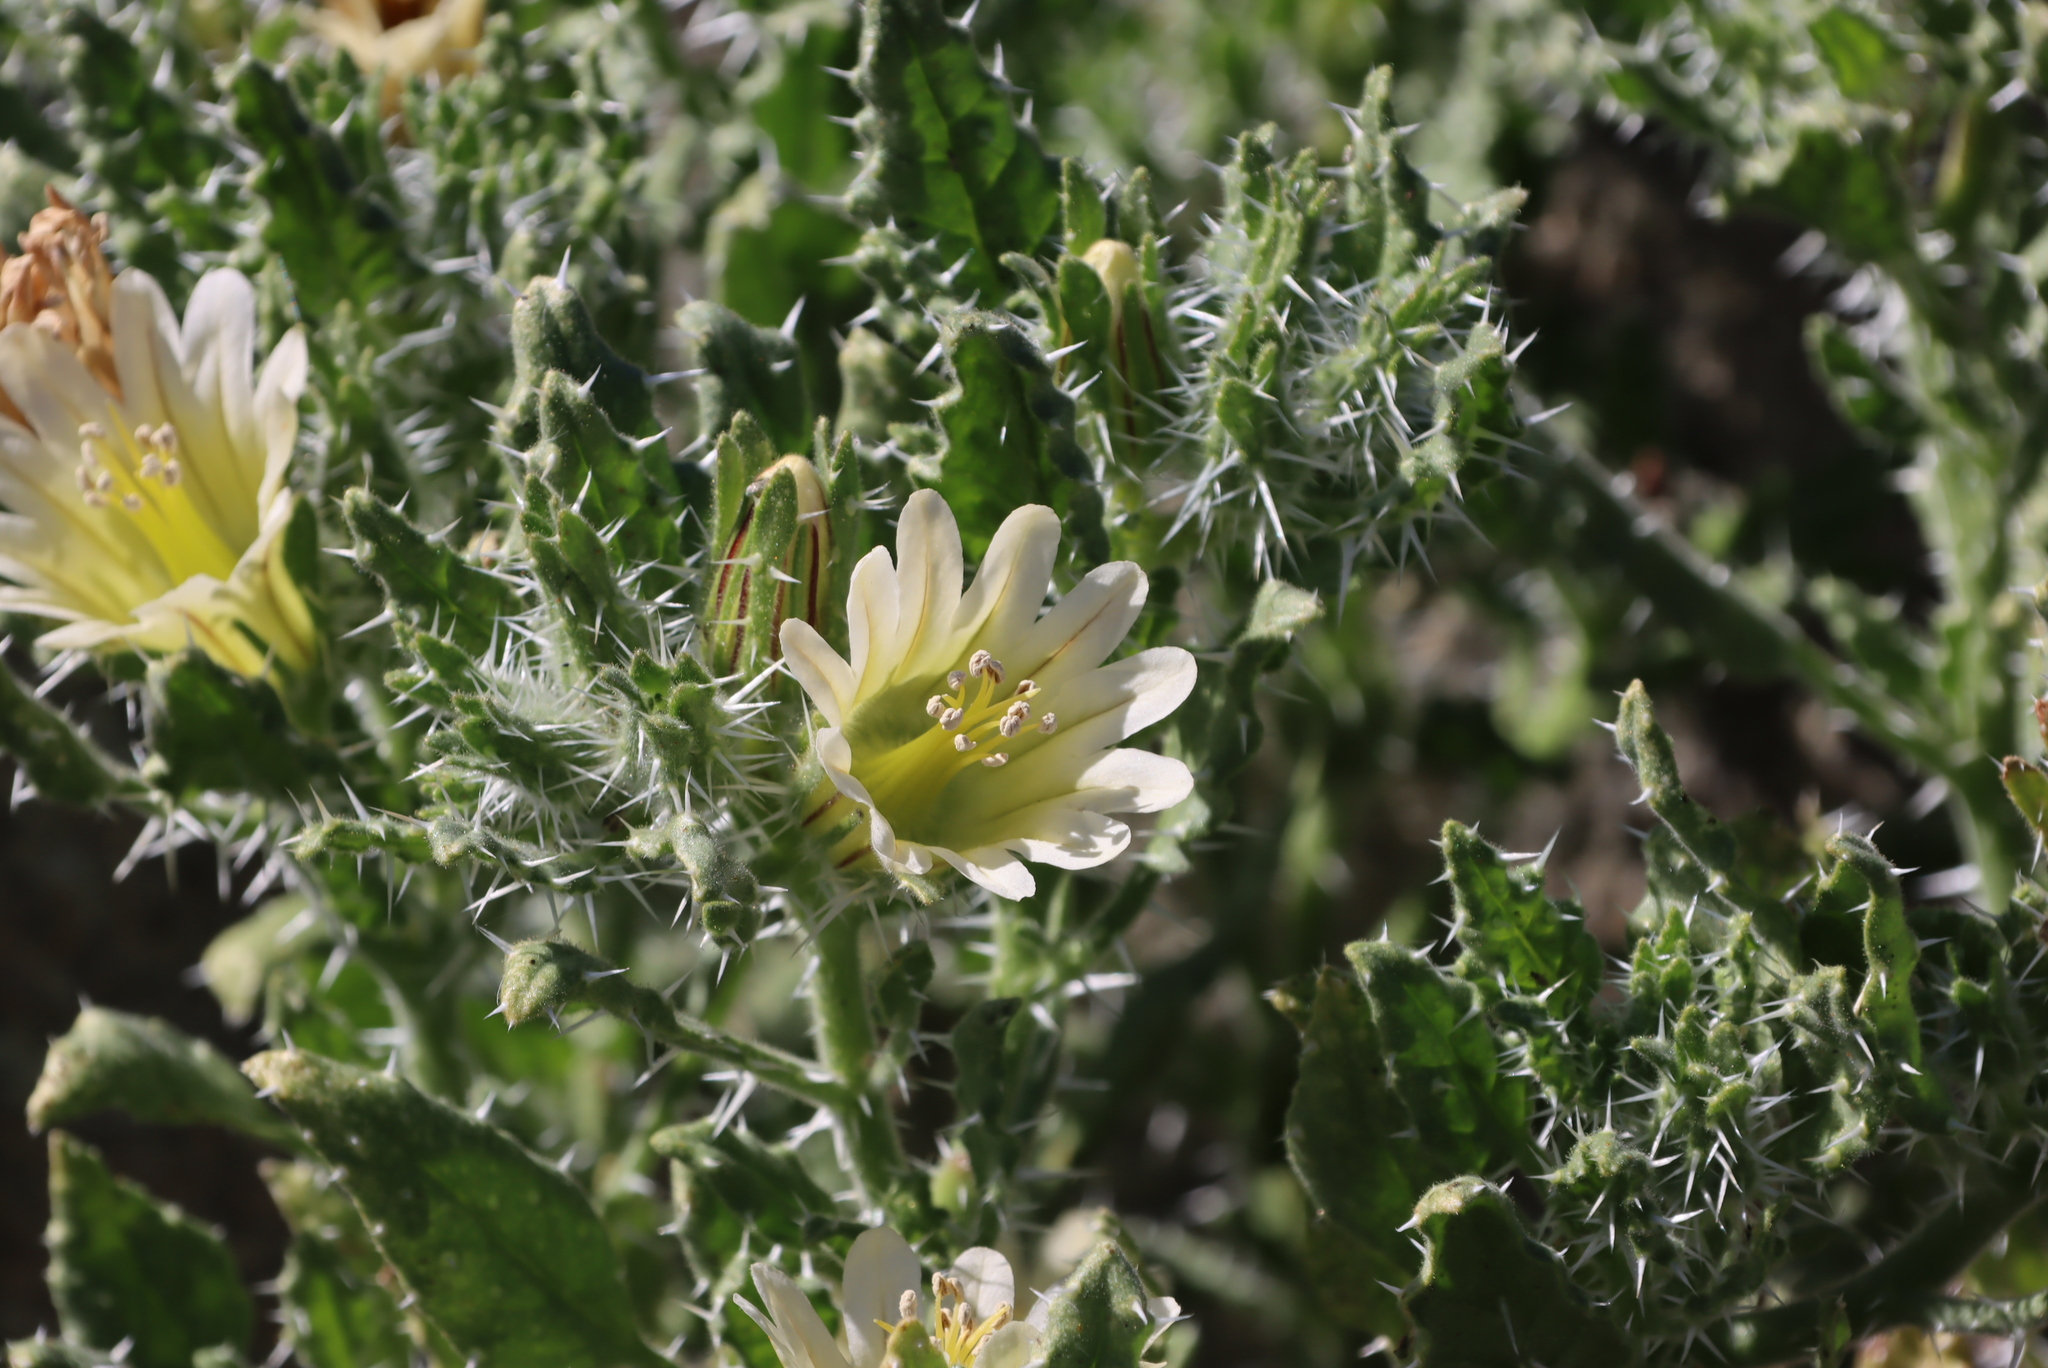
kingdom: Plantae
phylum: Tracheophyta
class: Magnoliopsida
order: Boraginales
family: Boraginaceae
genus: Codon
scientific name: Codon royenii
